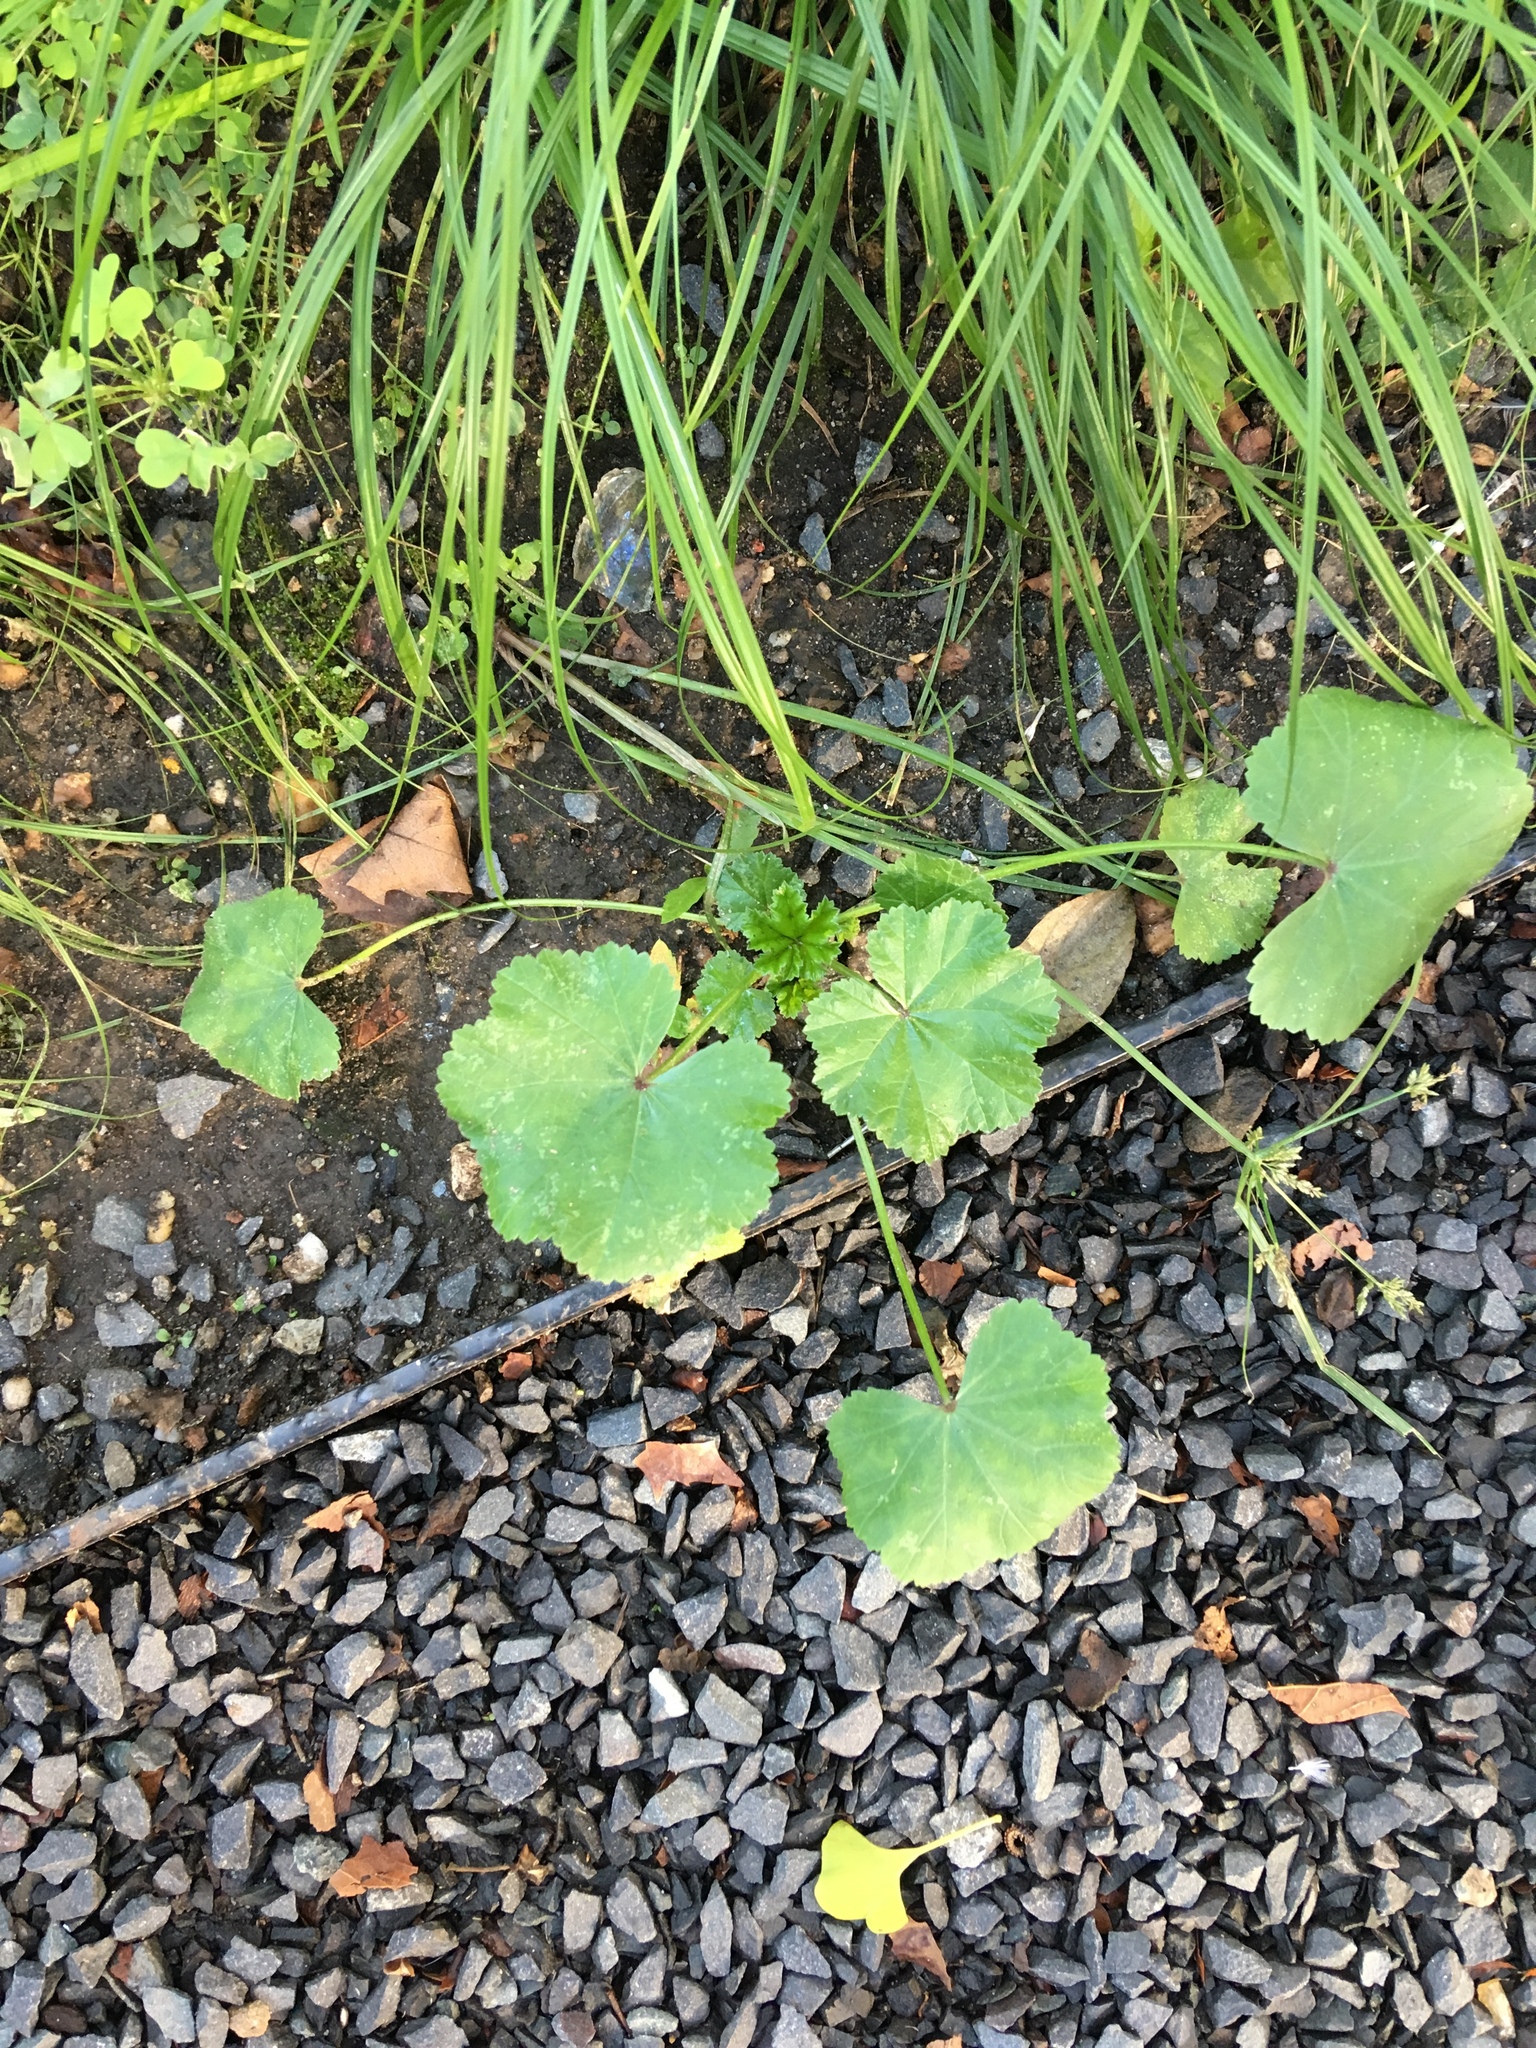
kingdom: Plantae
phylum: Tracheophyta
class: Magnoliopsida
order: Malvales
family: Malvaceae
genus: Malva
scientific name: Malva neglecta
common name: Common mallow
